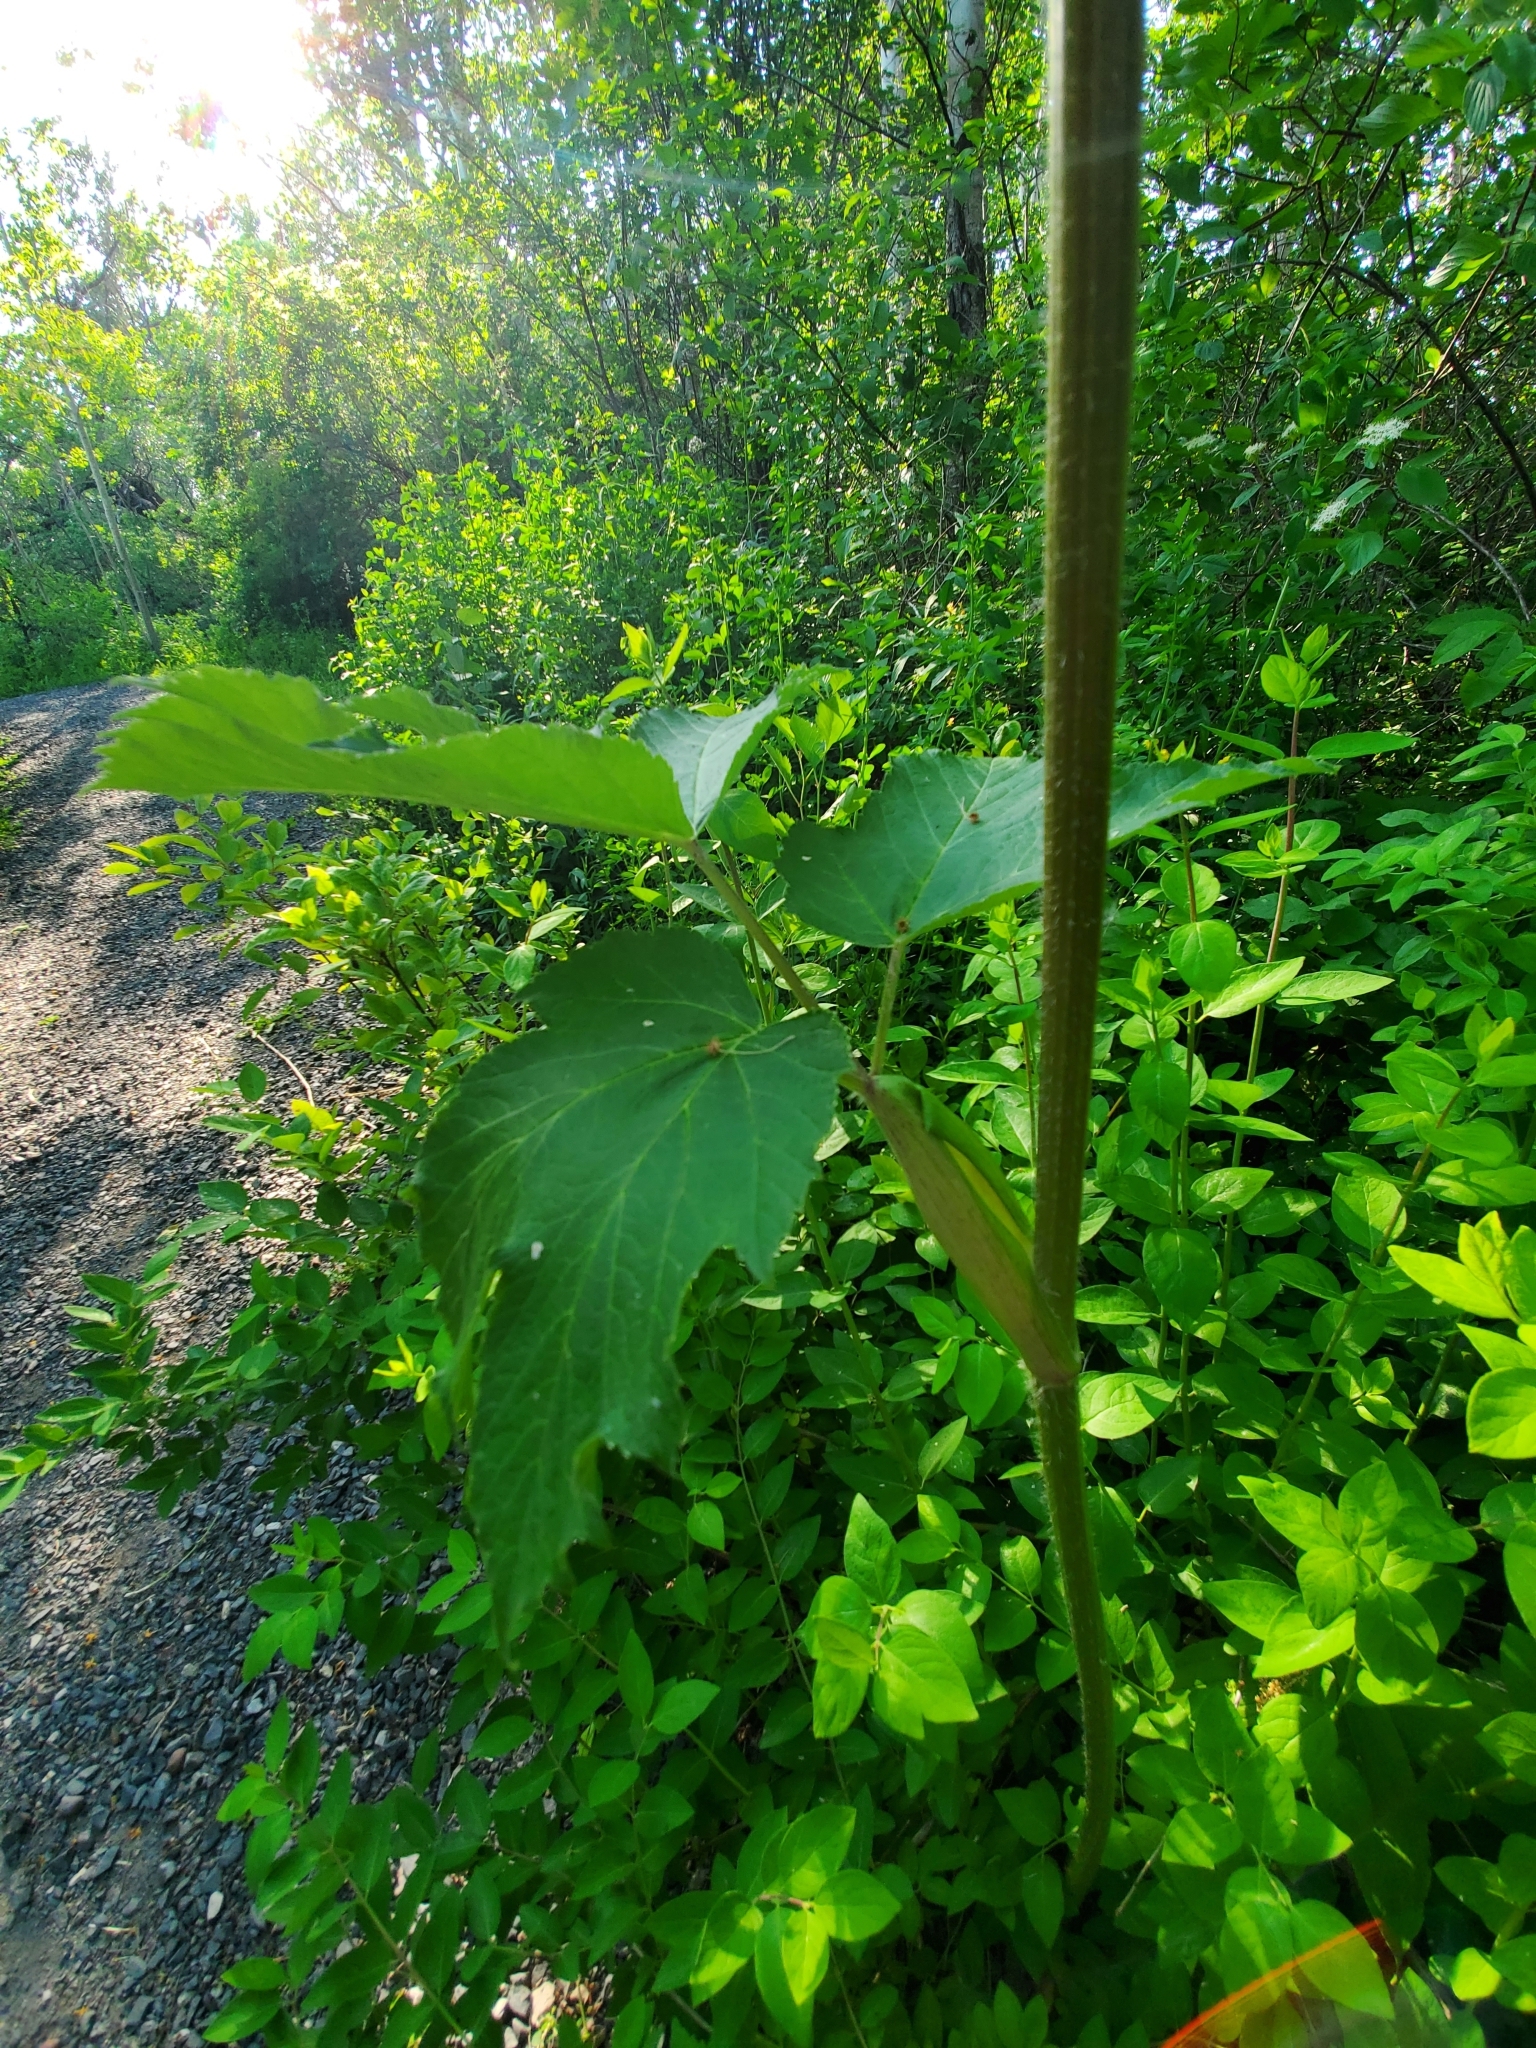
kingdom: Plantae
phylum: Tracheophyta
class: Magnoliopsida
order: Apiales
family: Apiaceae
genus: Heracleum
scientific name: Heracleum maximum
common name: American cow parsnip
